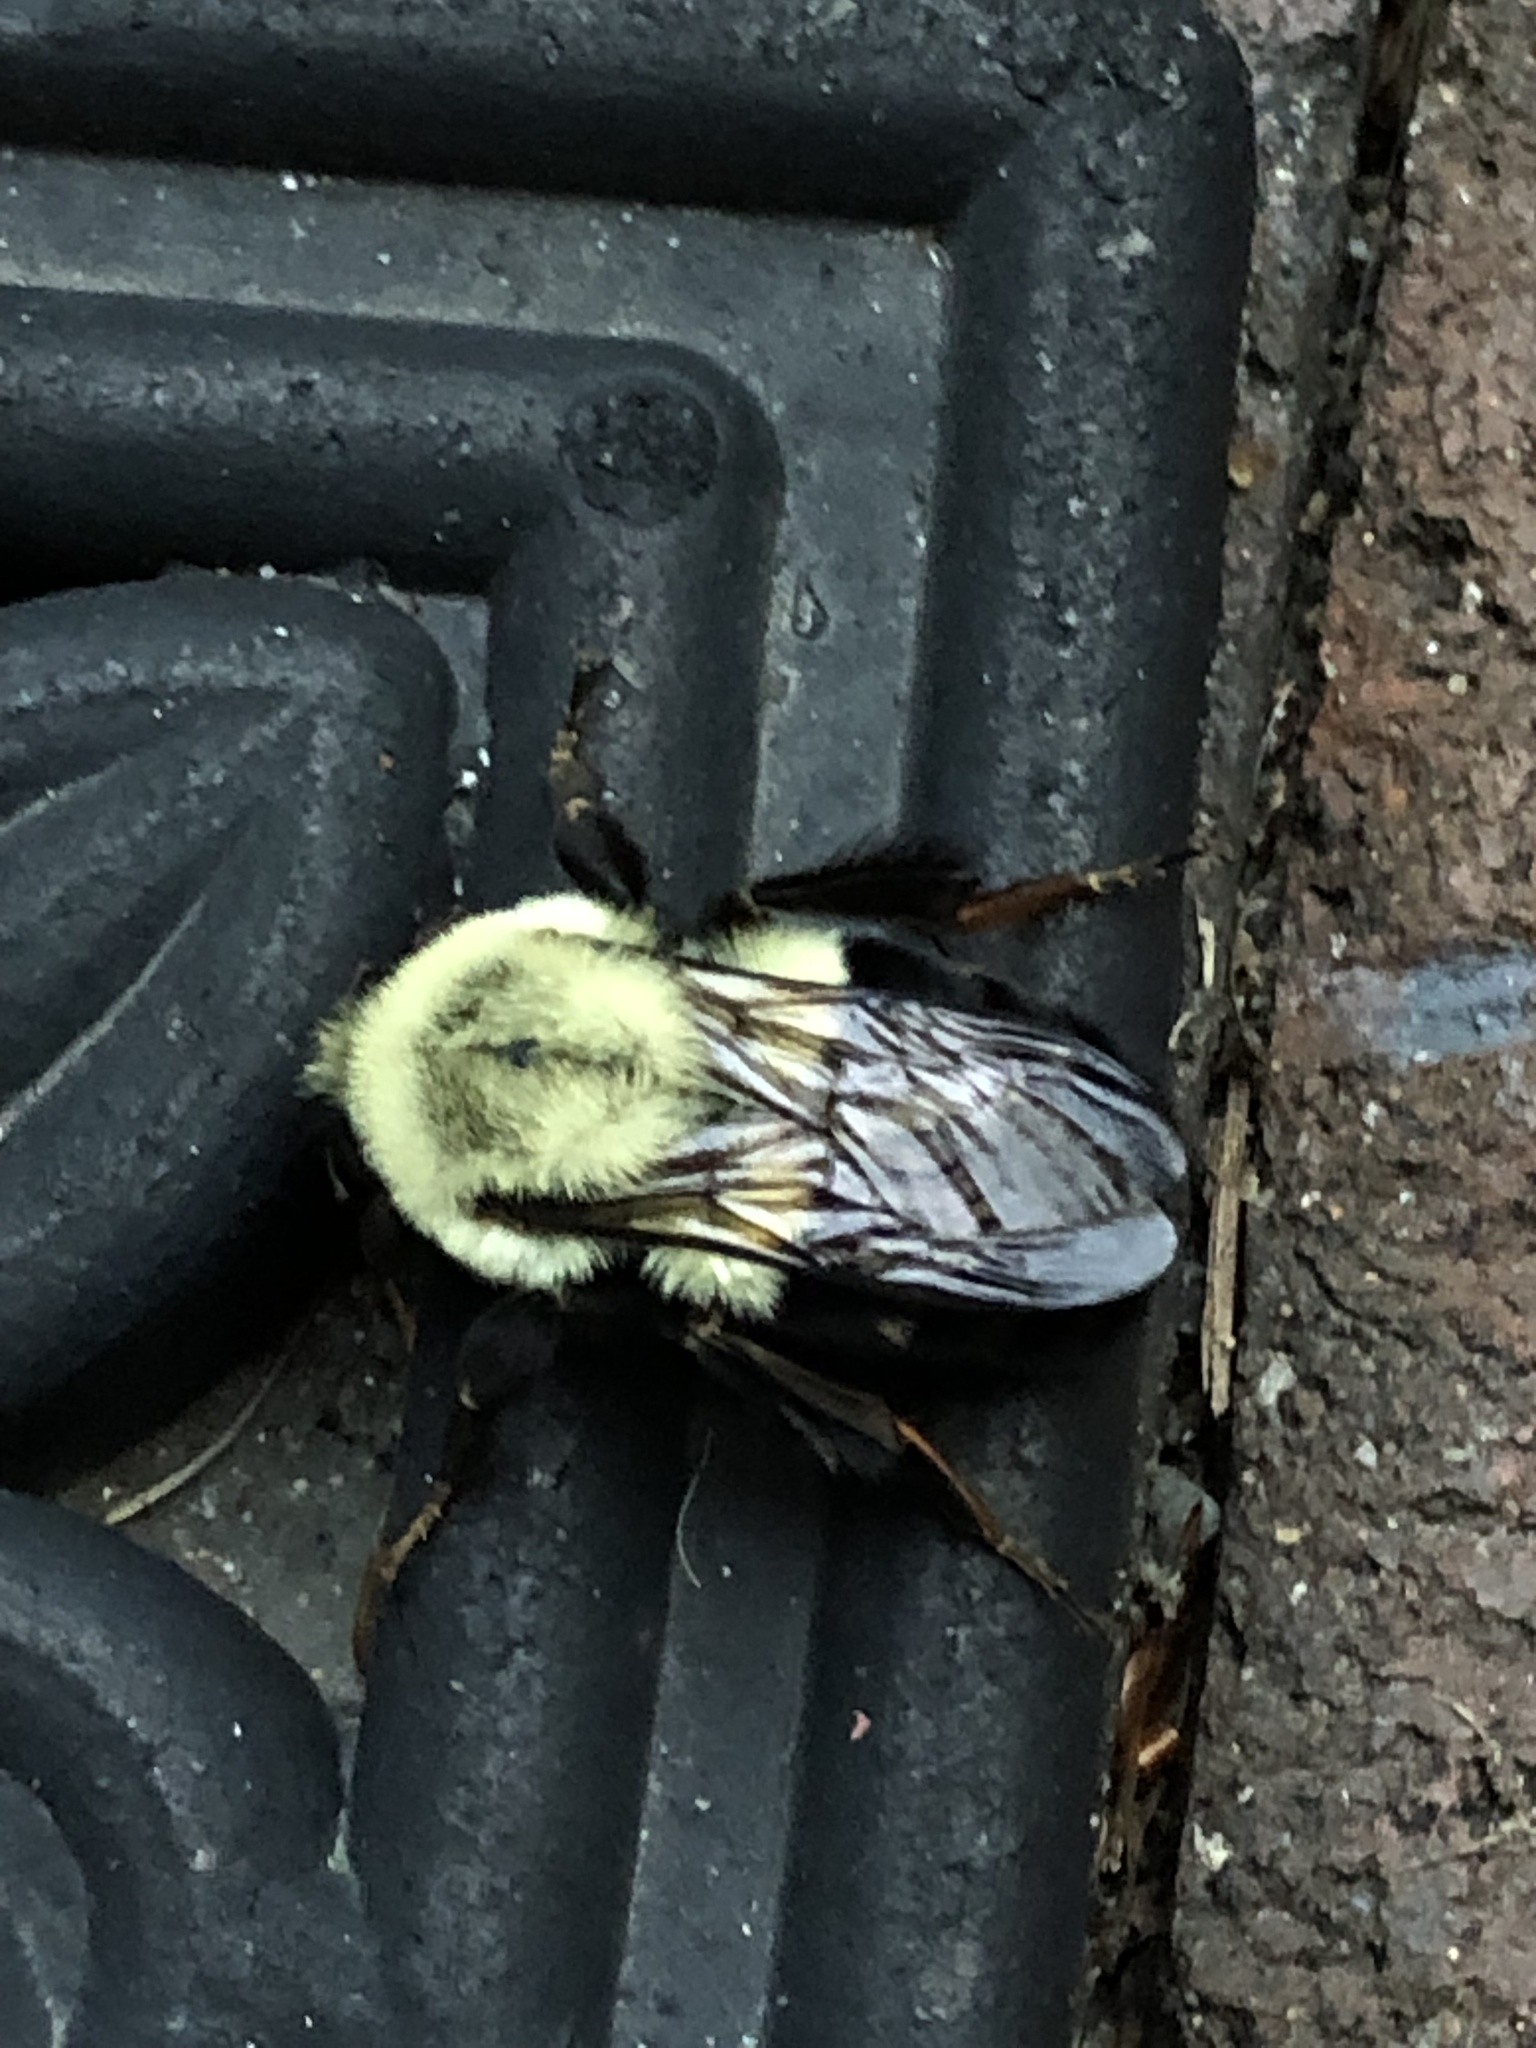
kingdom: Animalia
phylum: Arthropoda
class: Insecta
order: Hymenoptera
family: Apidae
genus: Bombus
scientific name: Bombus impatiens
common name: Common eastern bumble bee
